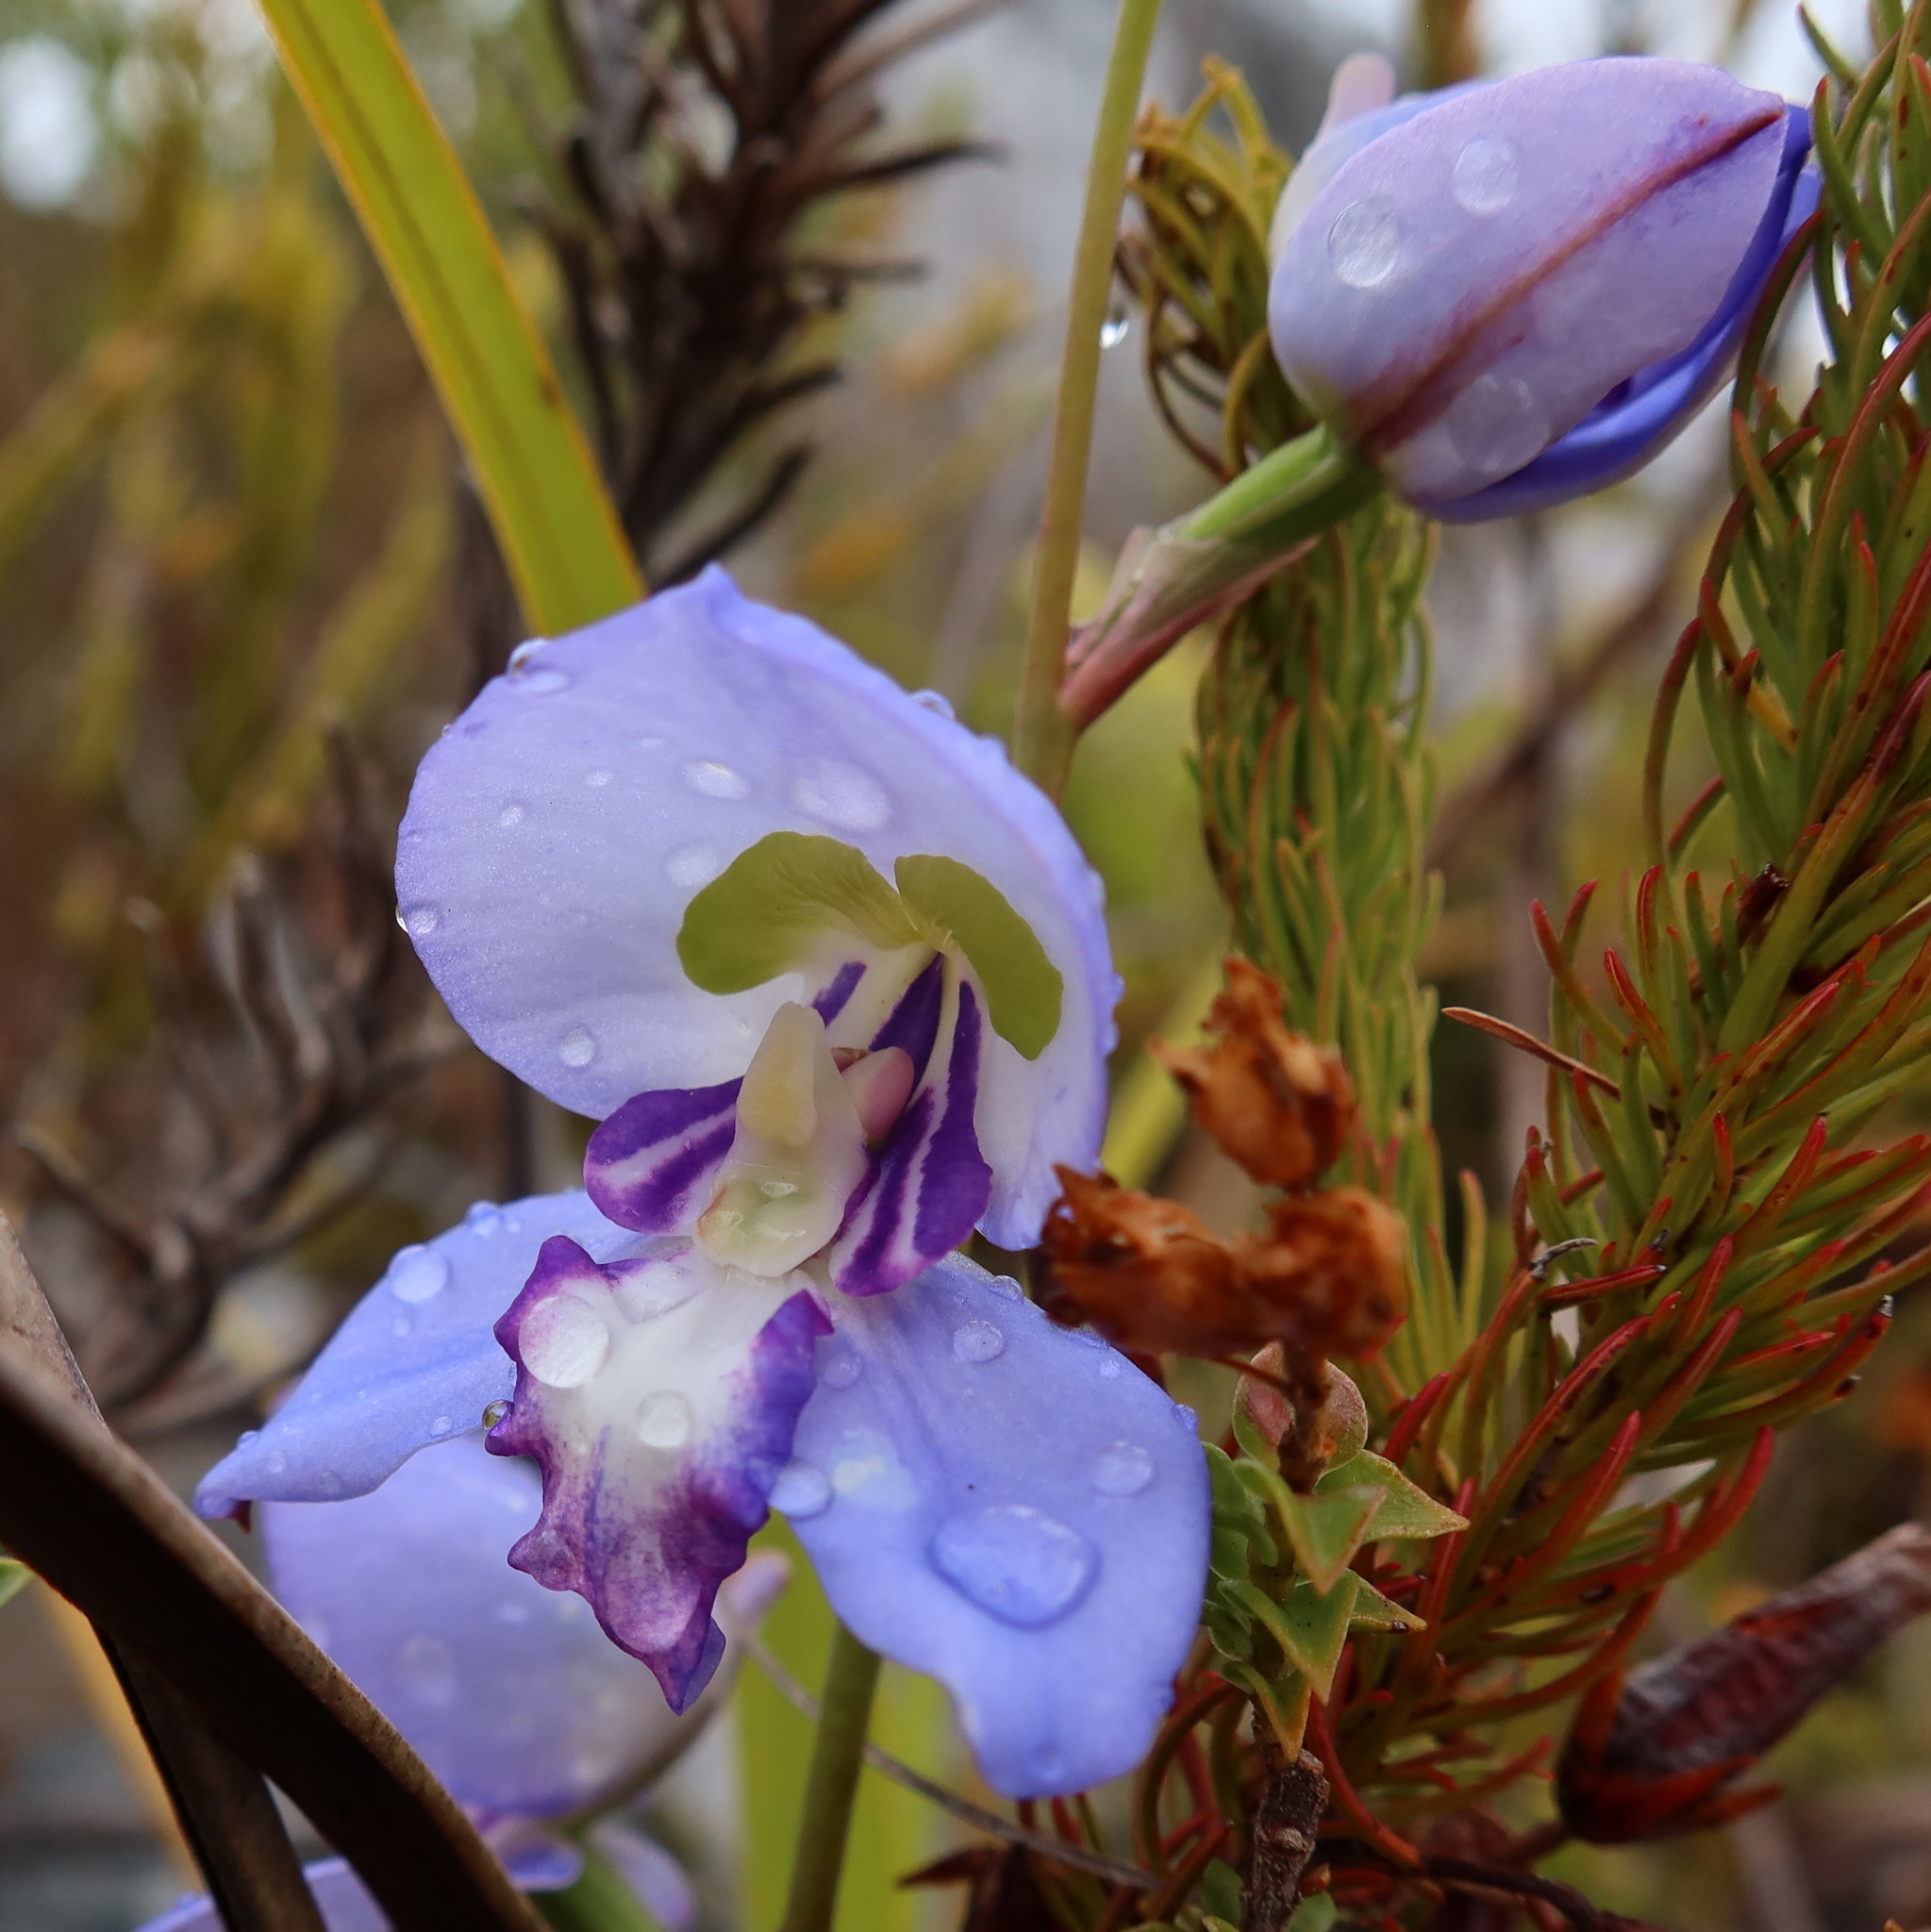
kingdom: Plantae
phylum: Tracheophyta
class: Liliopsida
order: Asparagales
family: Orchidaceae
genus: Disa
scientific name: Disa graminifolia
